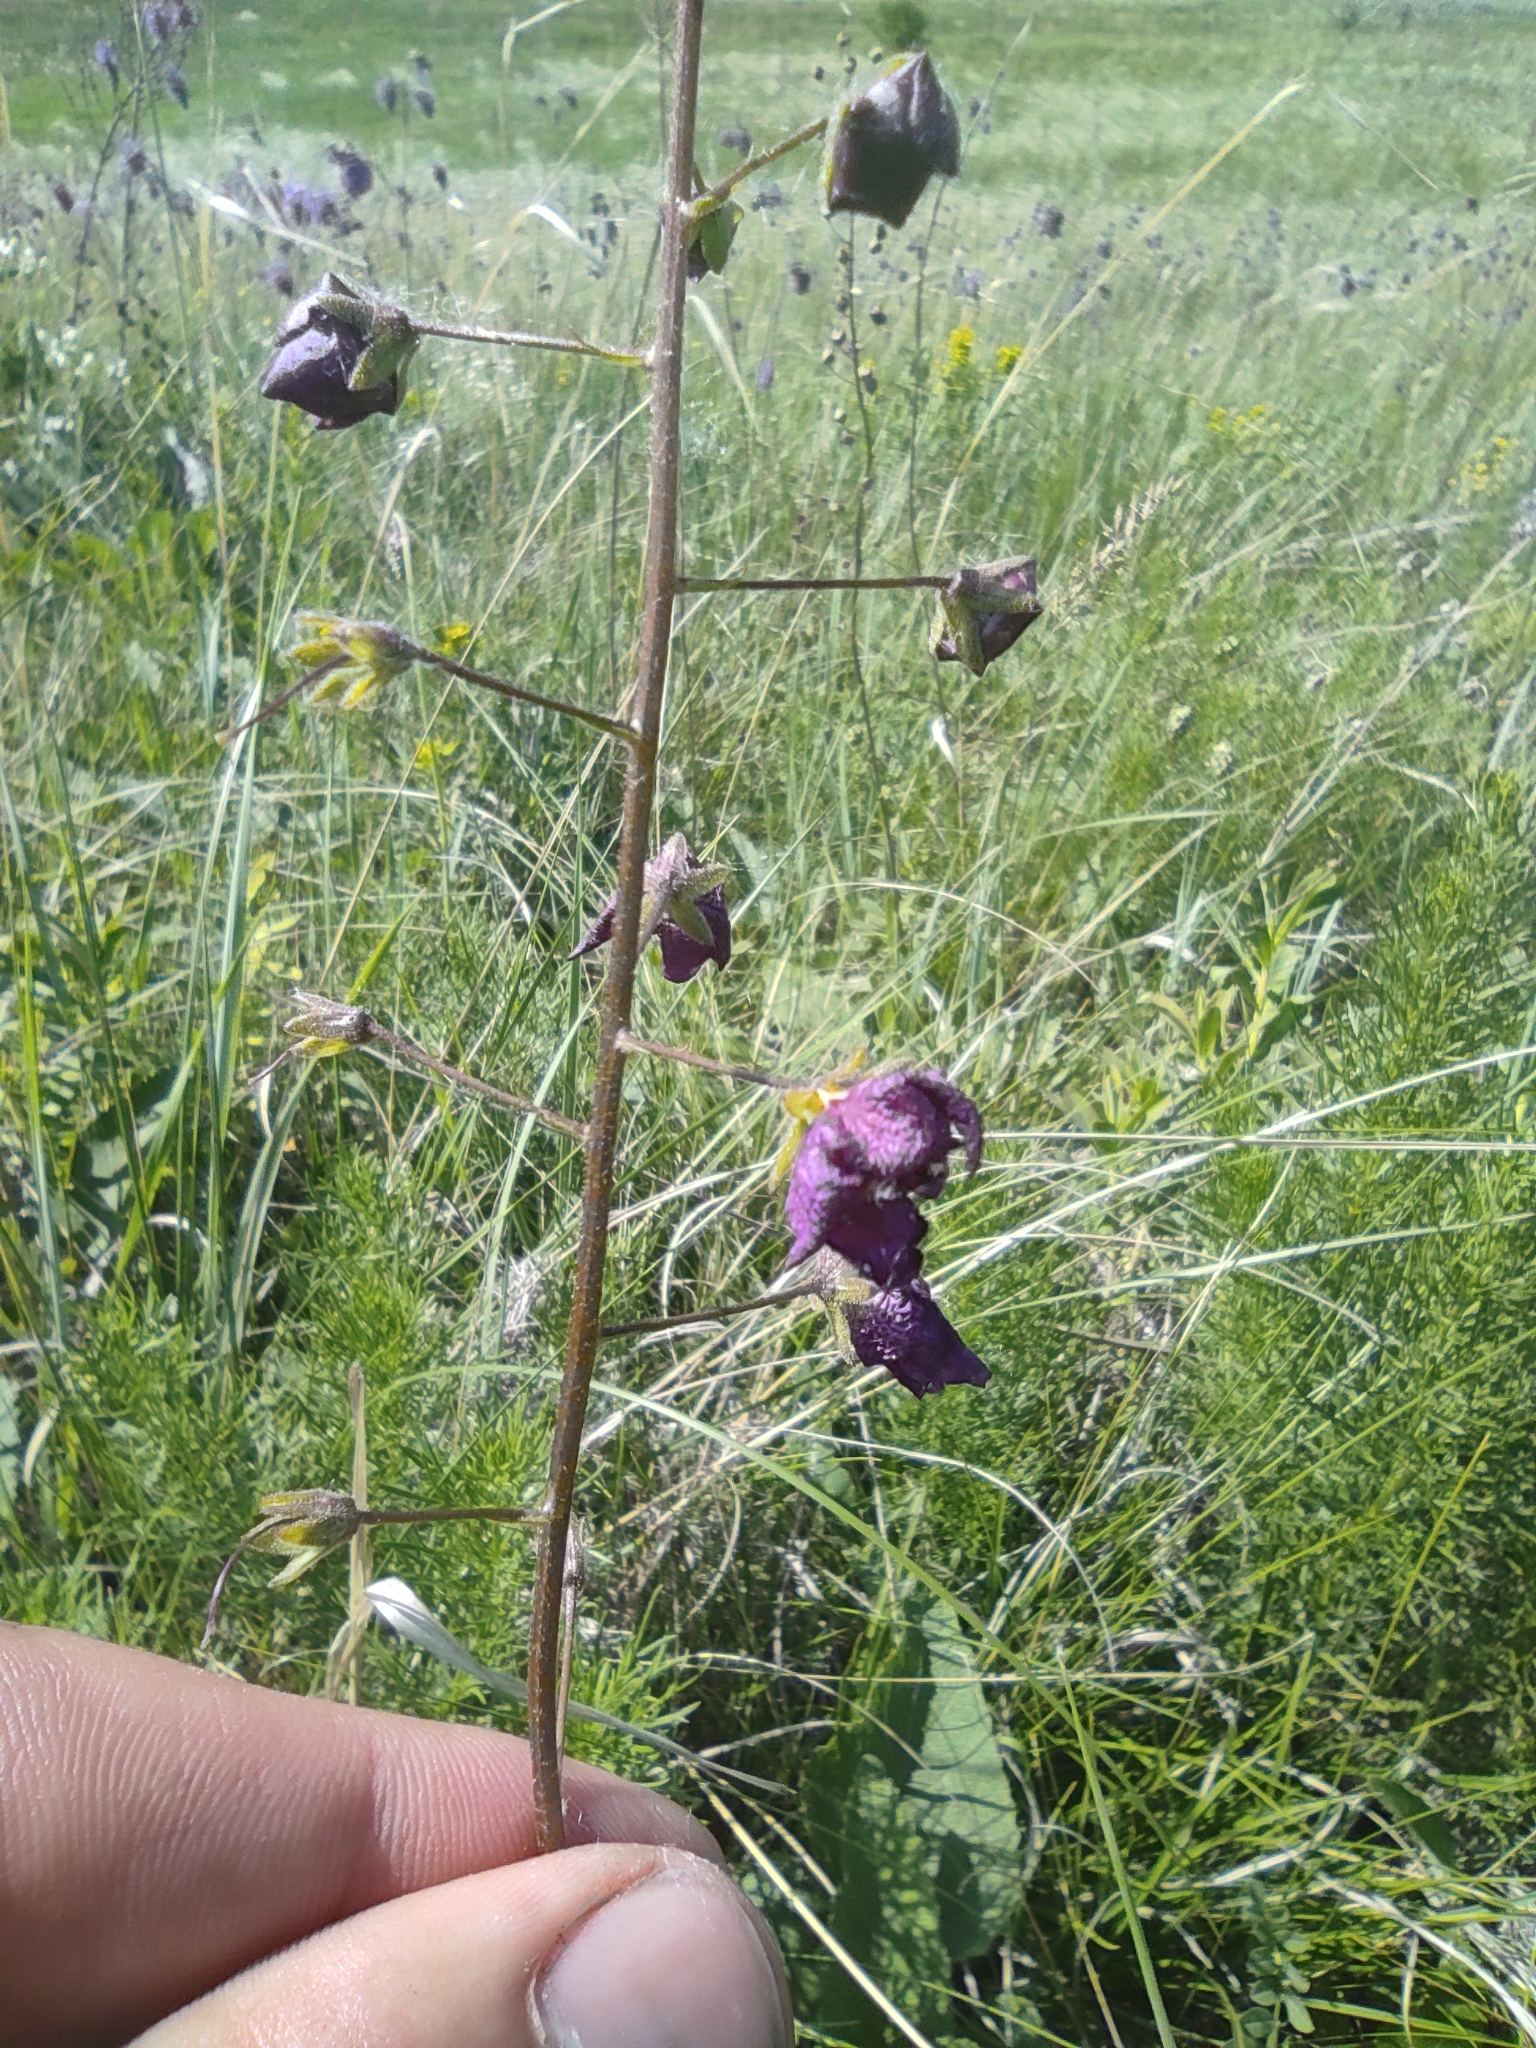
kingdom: Plantae
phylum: Tracheophyta
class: Magnoliopsida
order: Lamiales
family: Scrophulariaceae
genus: Verbascum
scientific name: Verbascum phoeniceum
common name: Purple mullein
